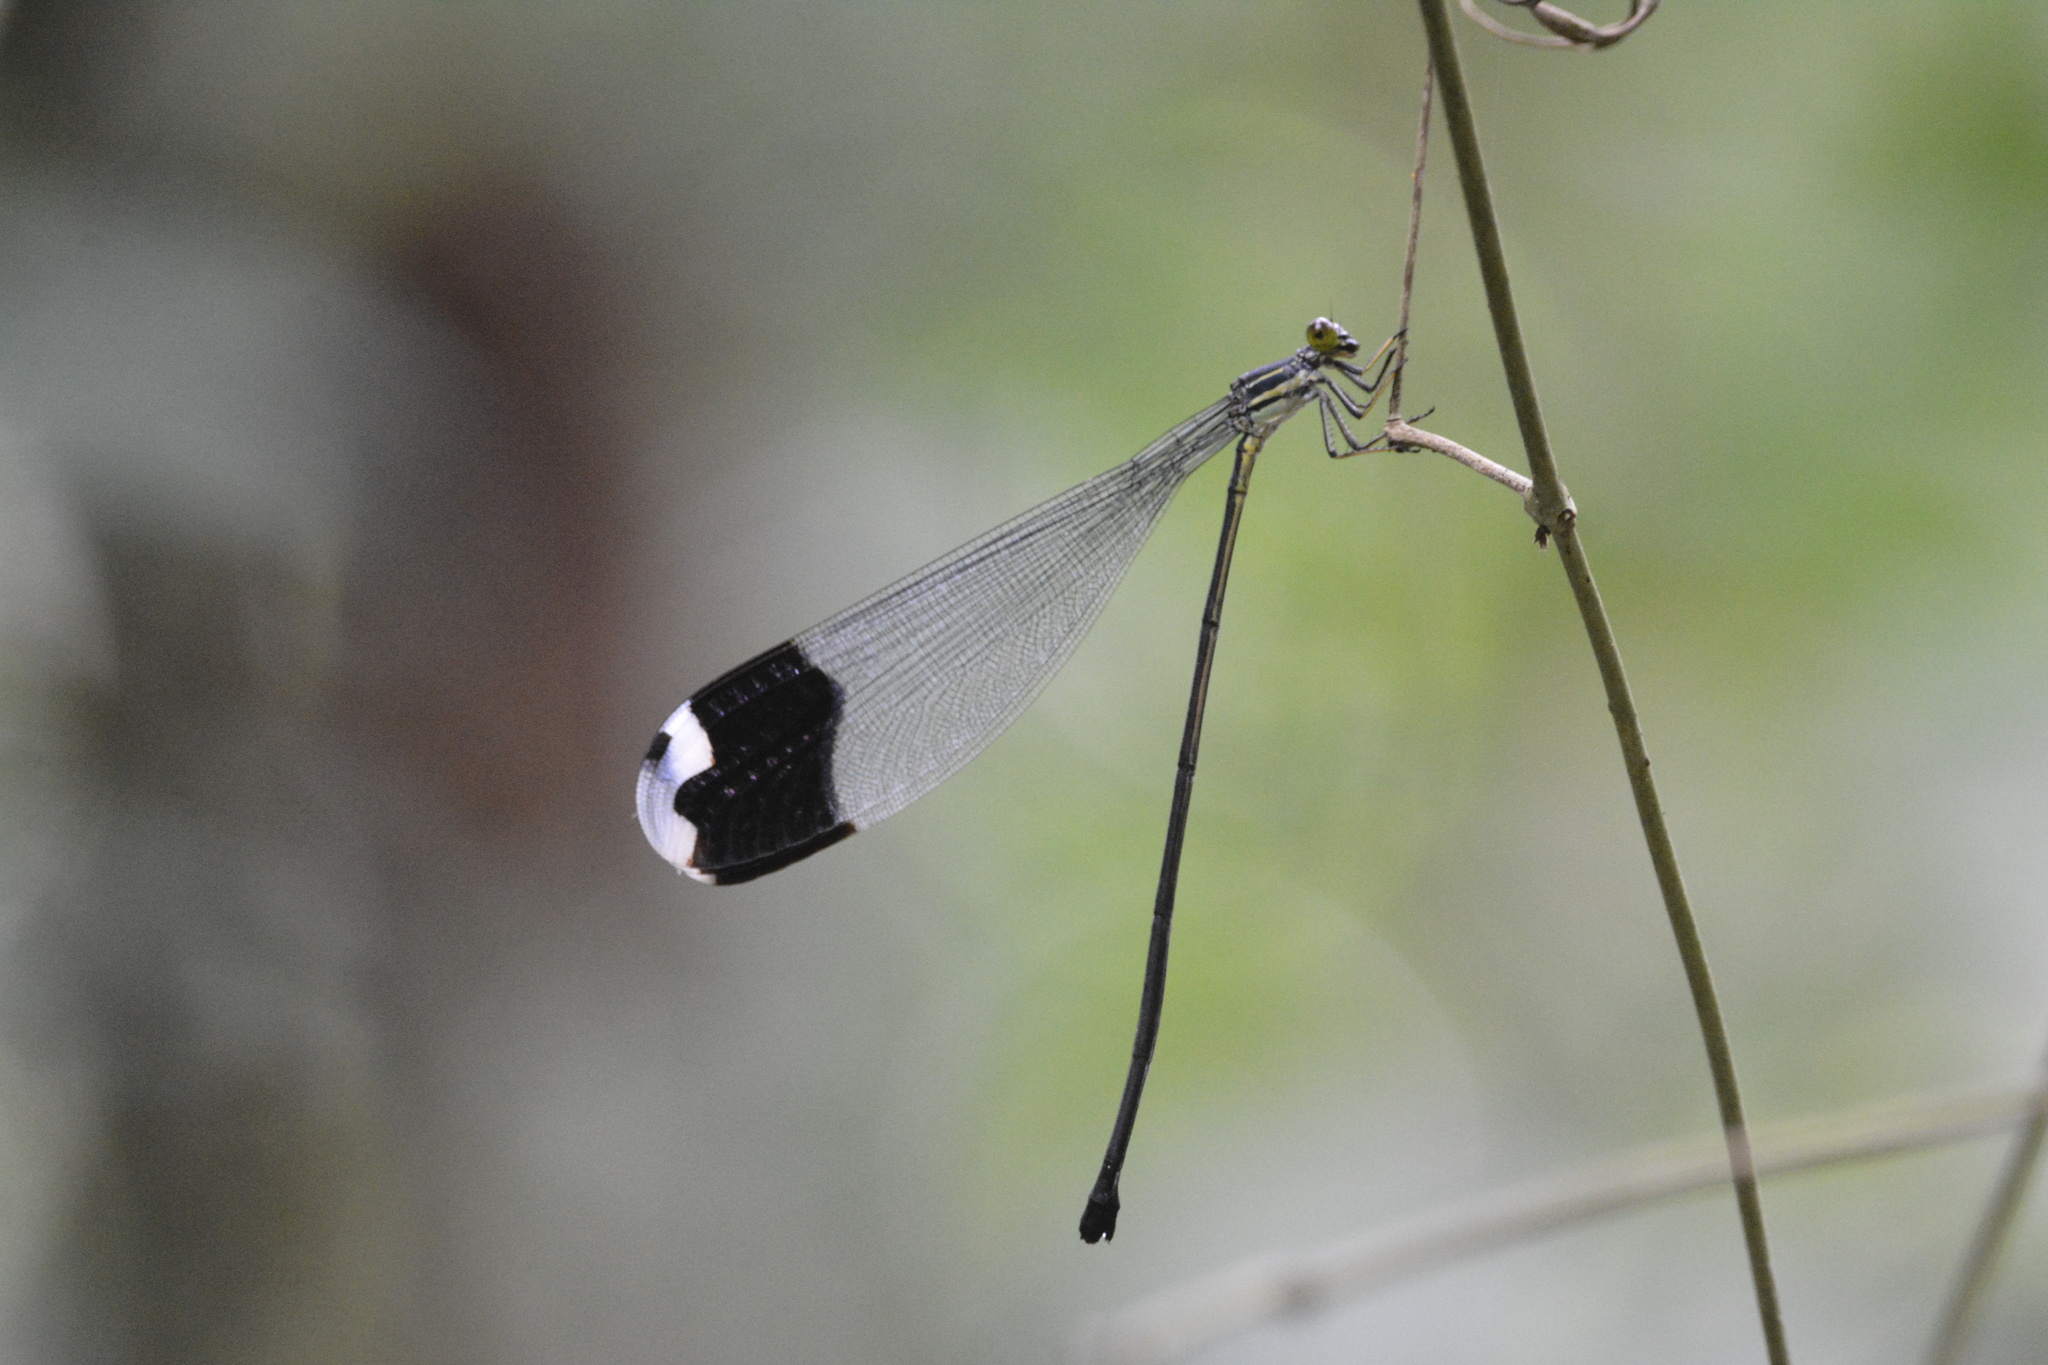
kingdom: Animalia
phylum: Arthropoda
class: Insecta
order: Odonata
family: Coenagrionidae
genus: Megaloprepus
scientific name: Megaloprepus diaboli
